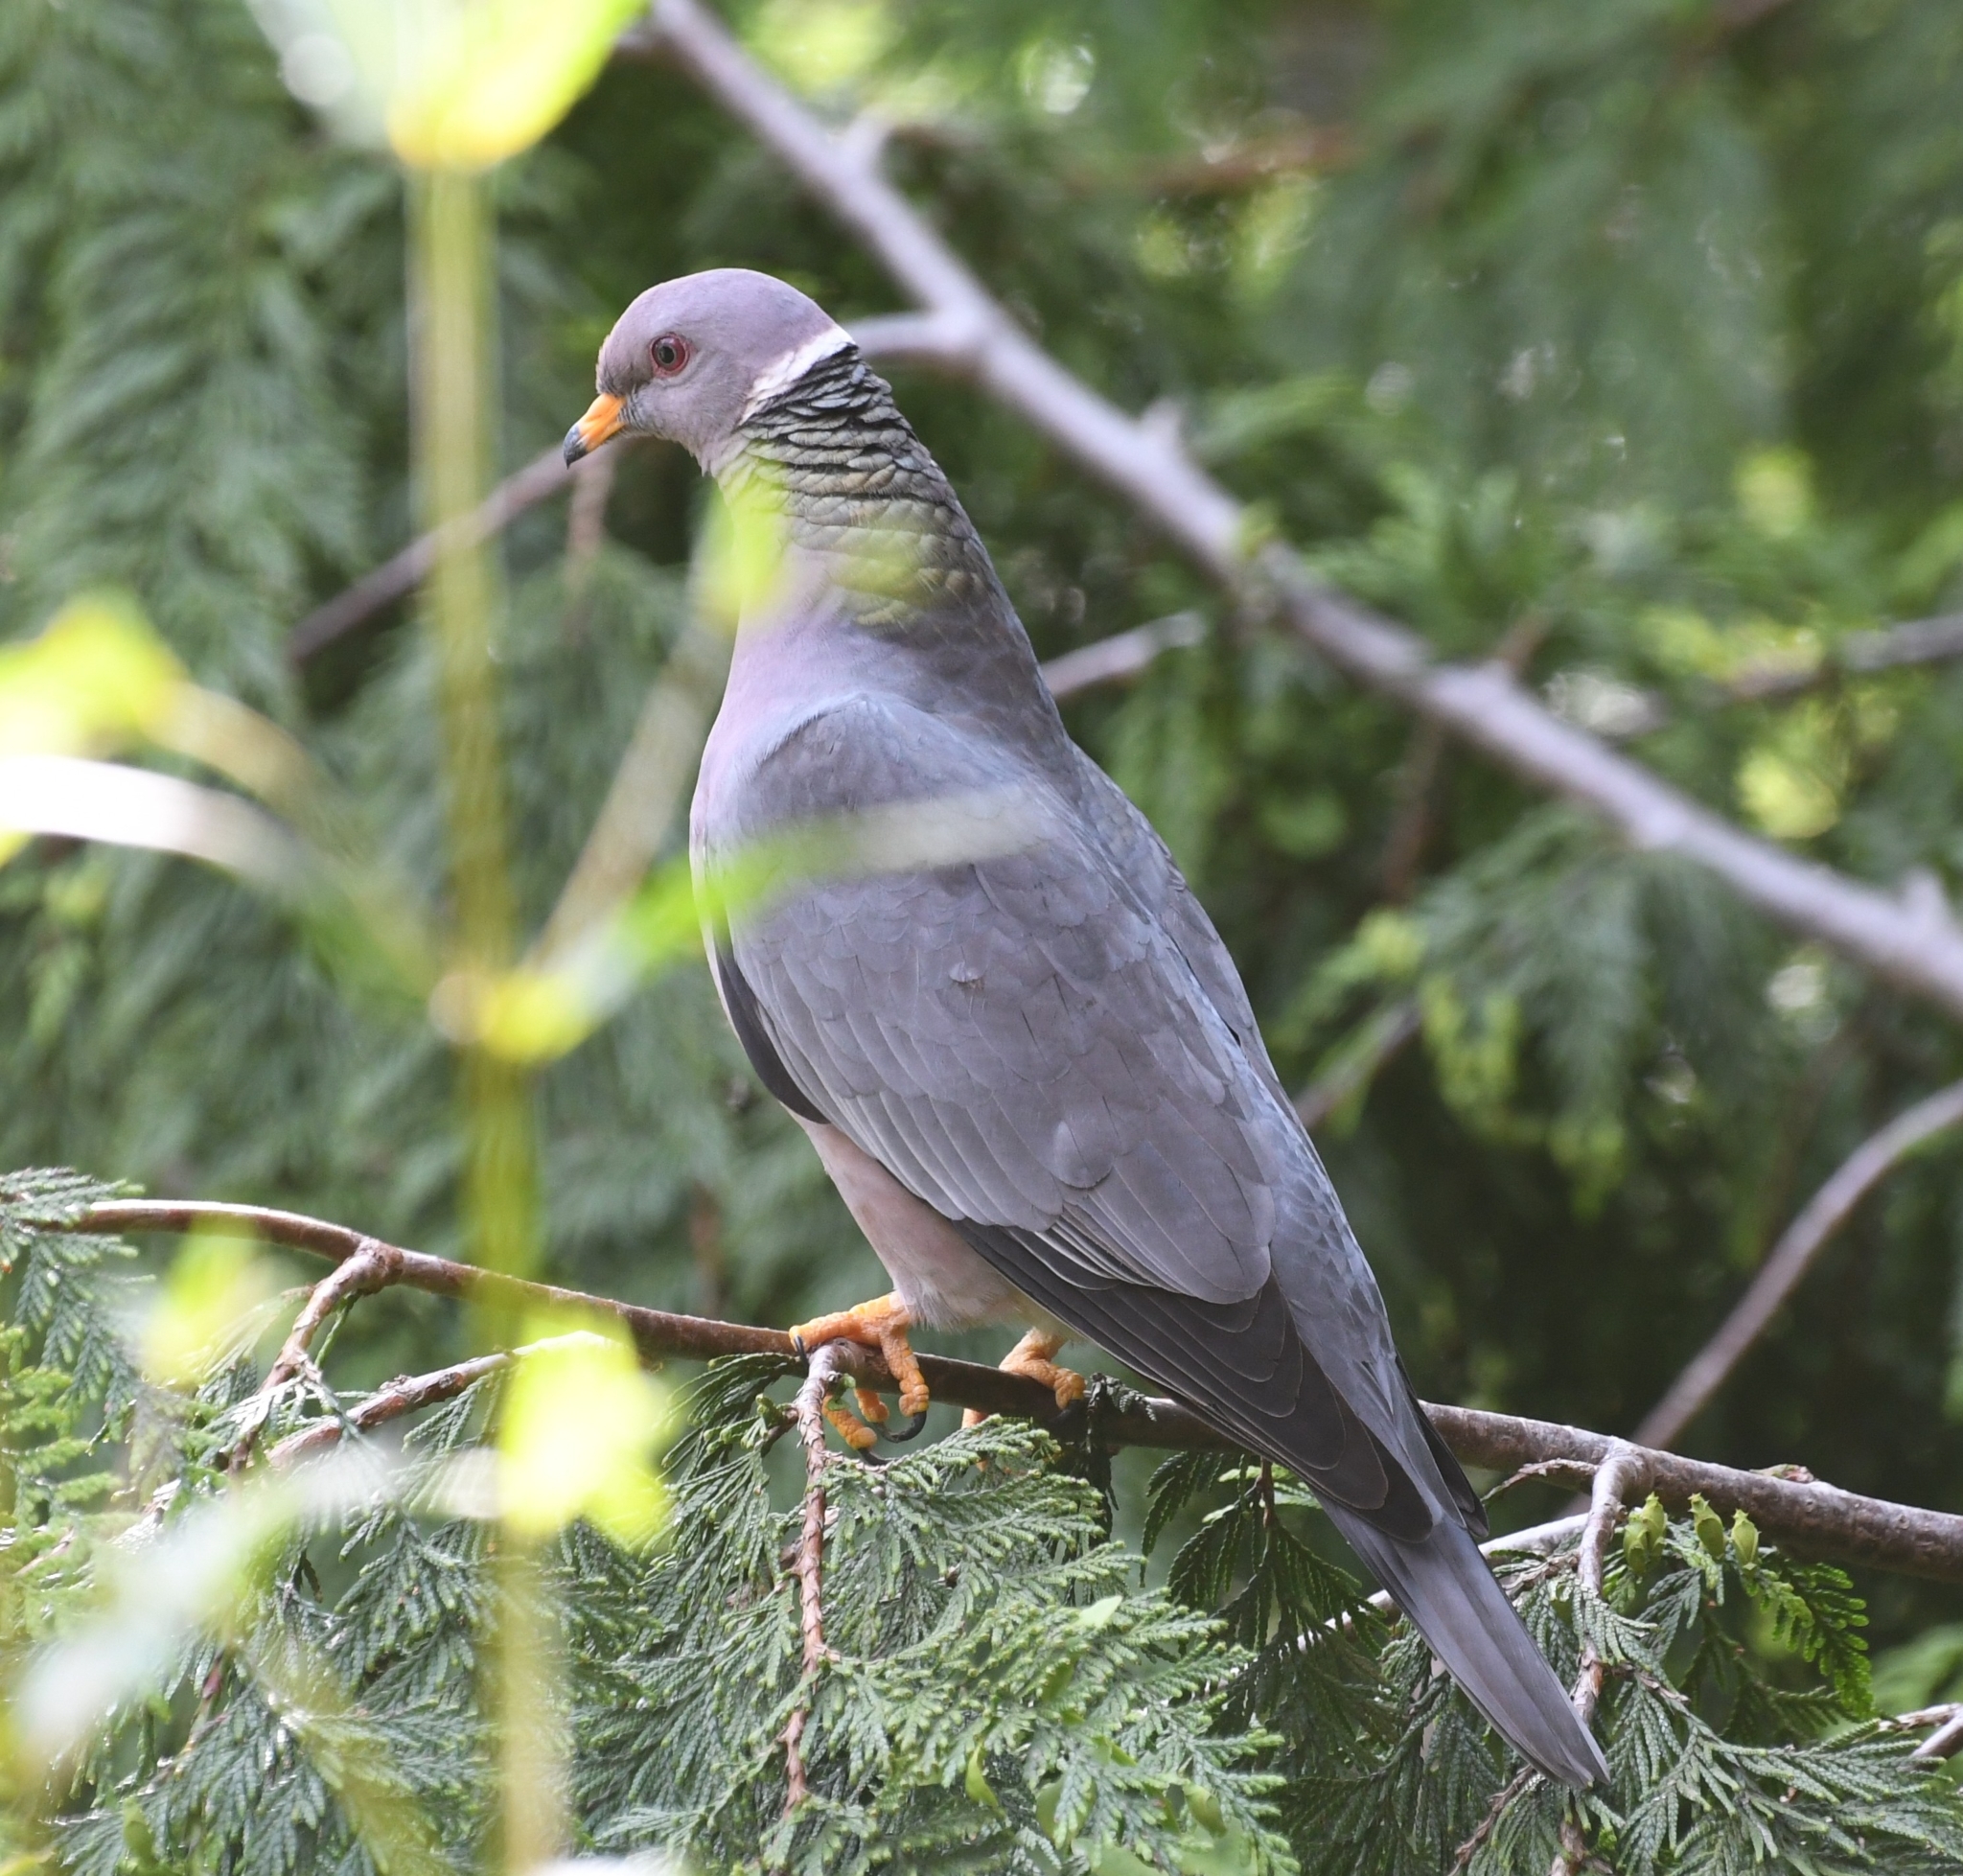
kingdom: Animalia
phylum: Chordata
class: Aves
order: Columbiformes
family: Columbidae
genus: Patagioenas
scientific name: Patagioenas fasciata
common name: Band-tailed pigeon
